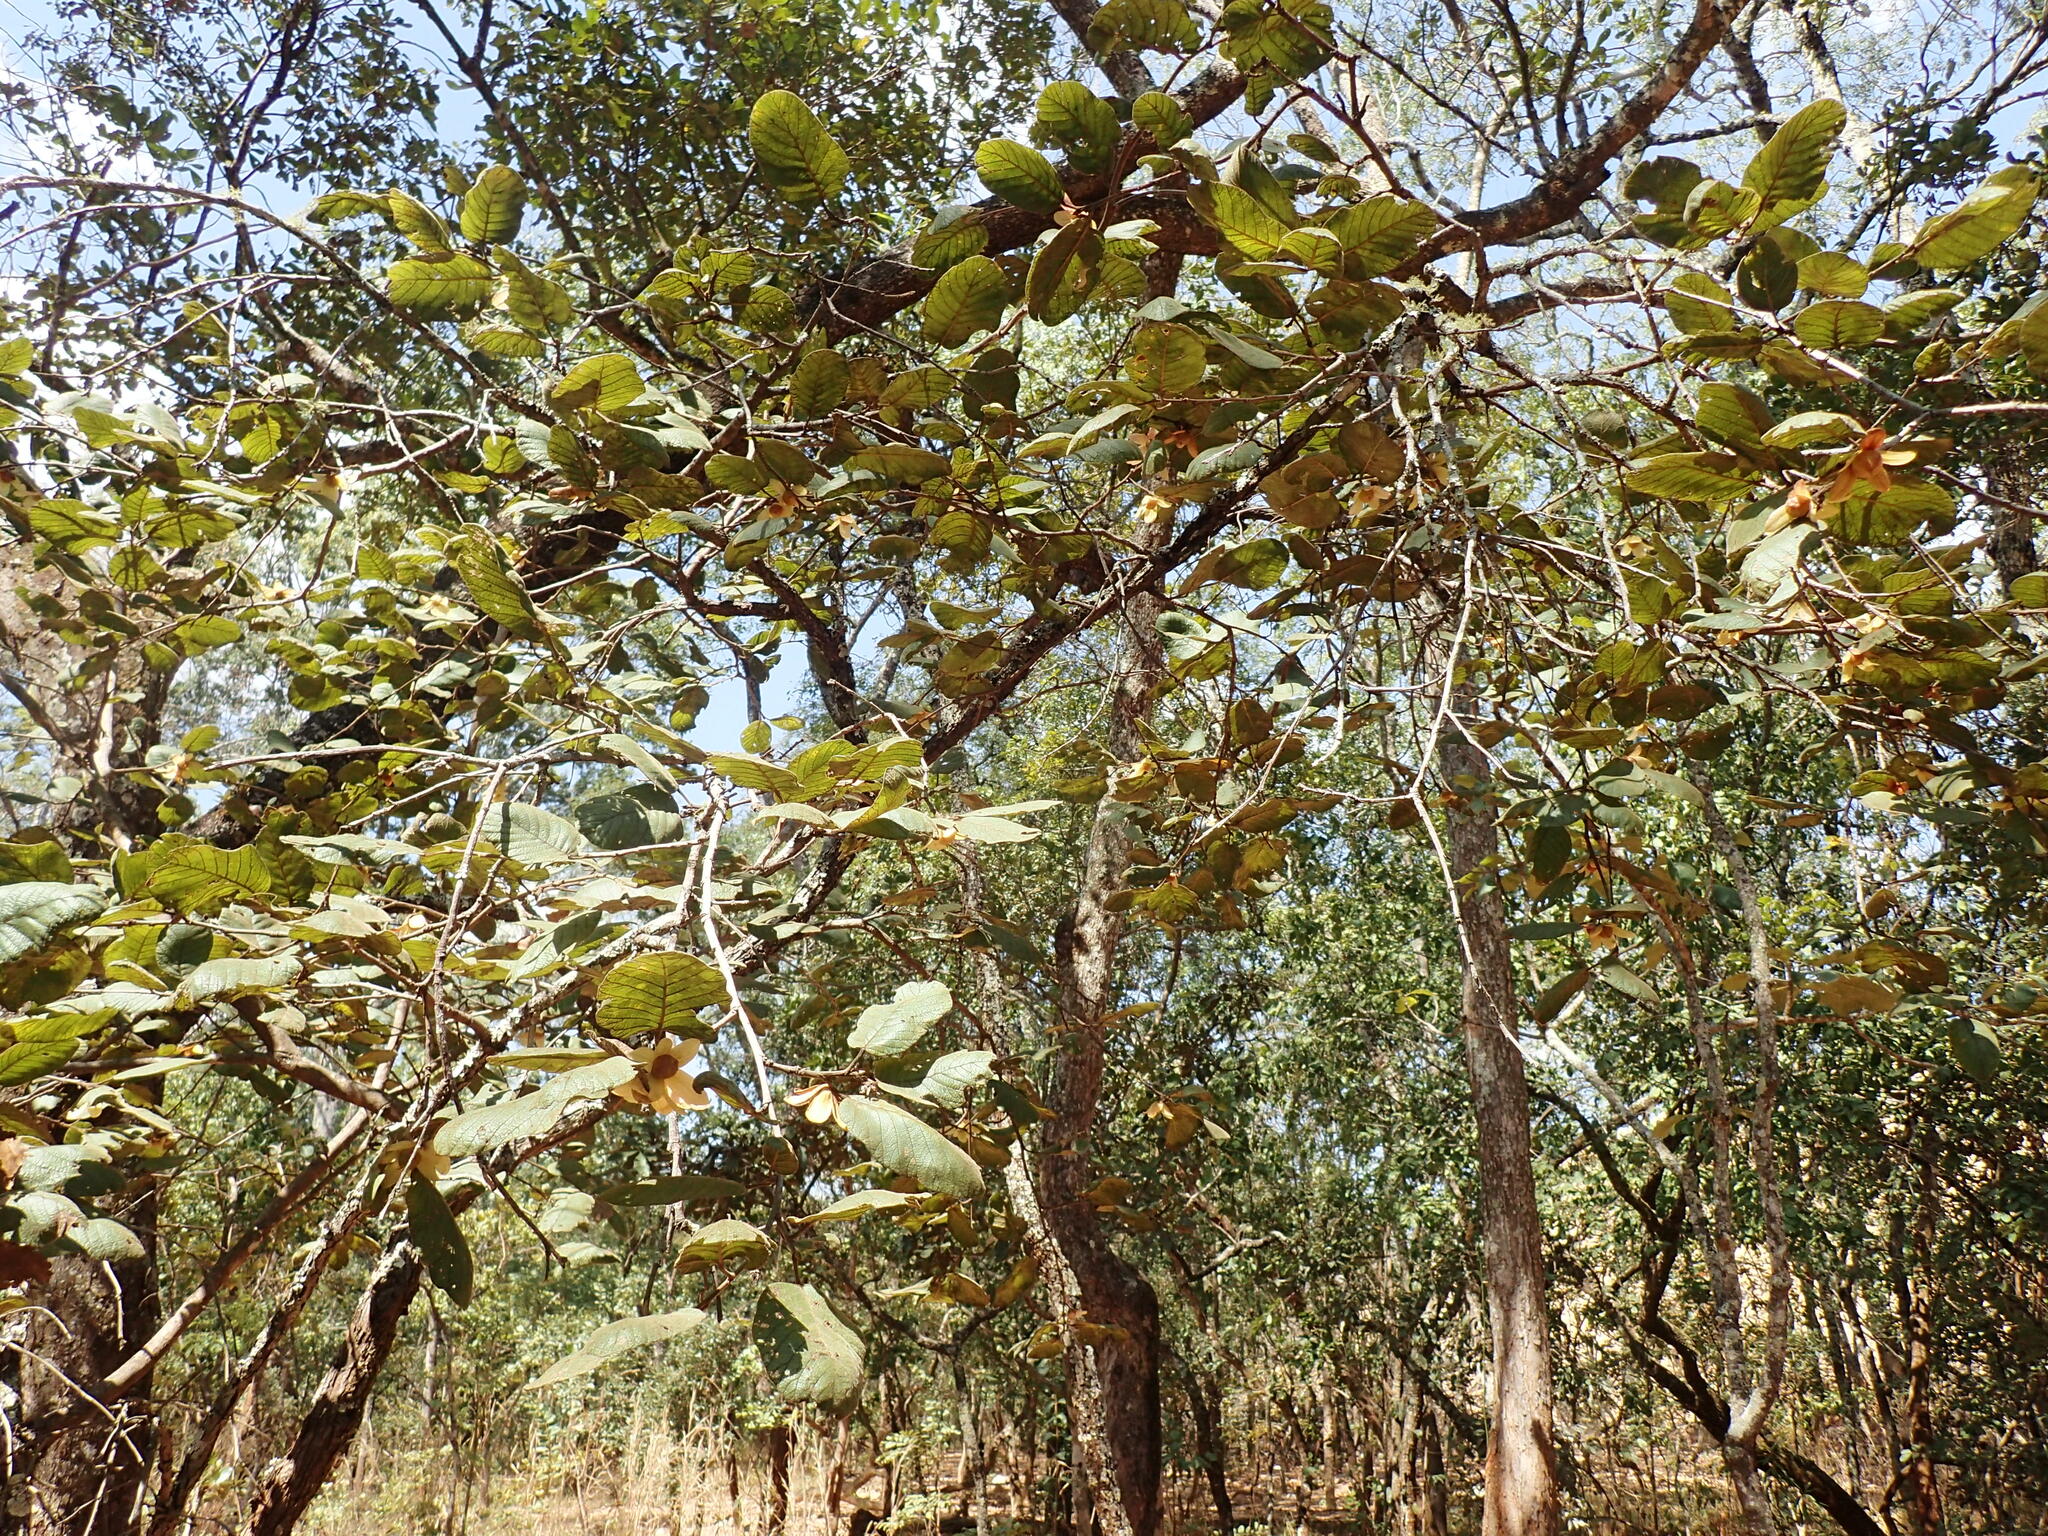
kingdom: Plantae
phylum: Tracheophyta
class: Magnoliopsida
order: Malvales
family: Dipterocarpaceae
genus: Monotes
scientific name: Monotes africanus
